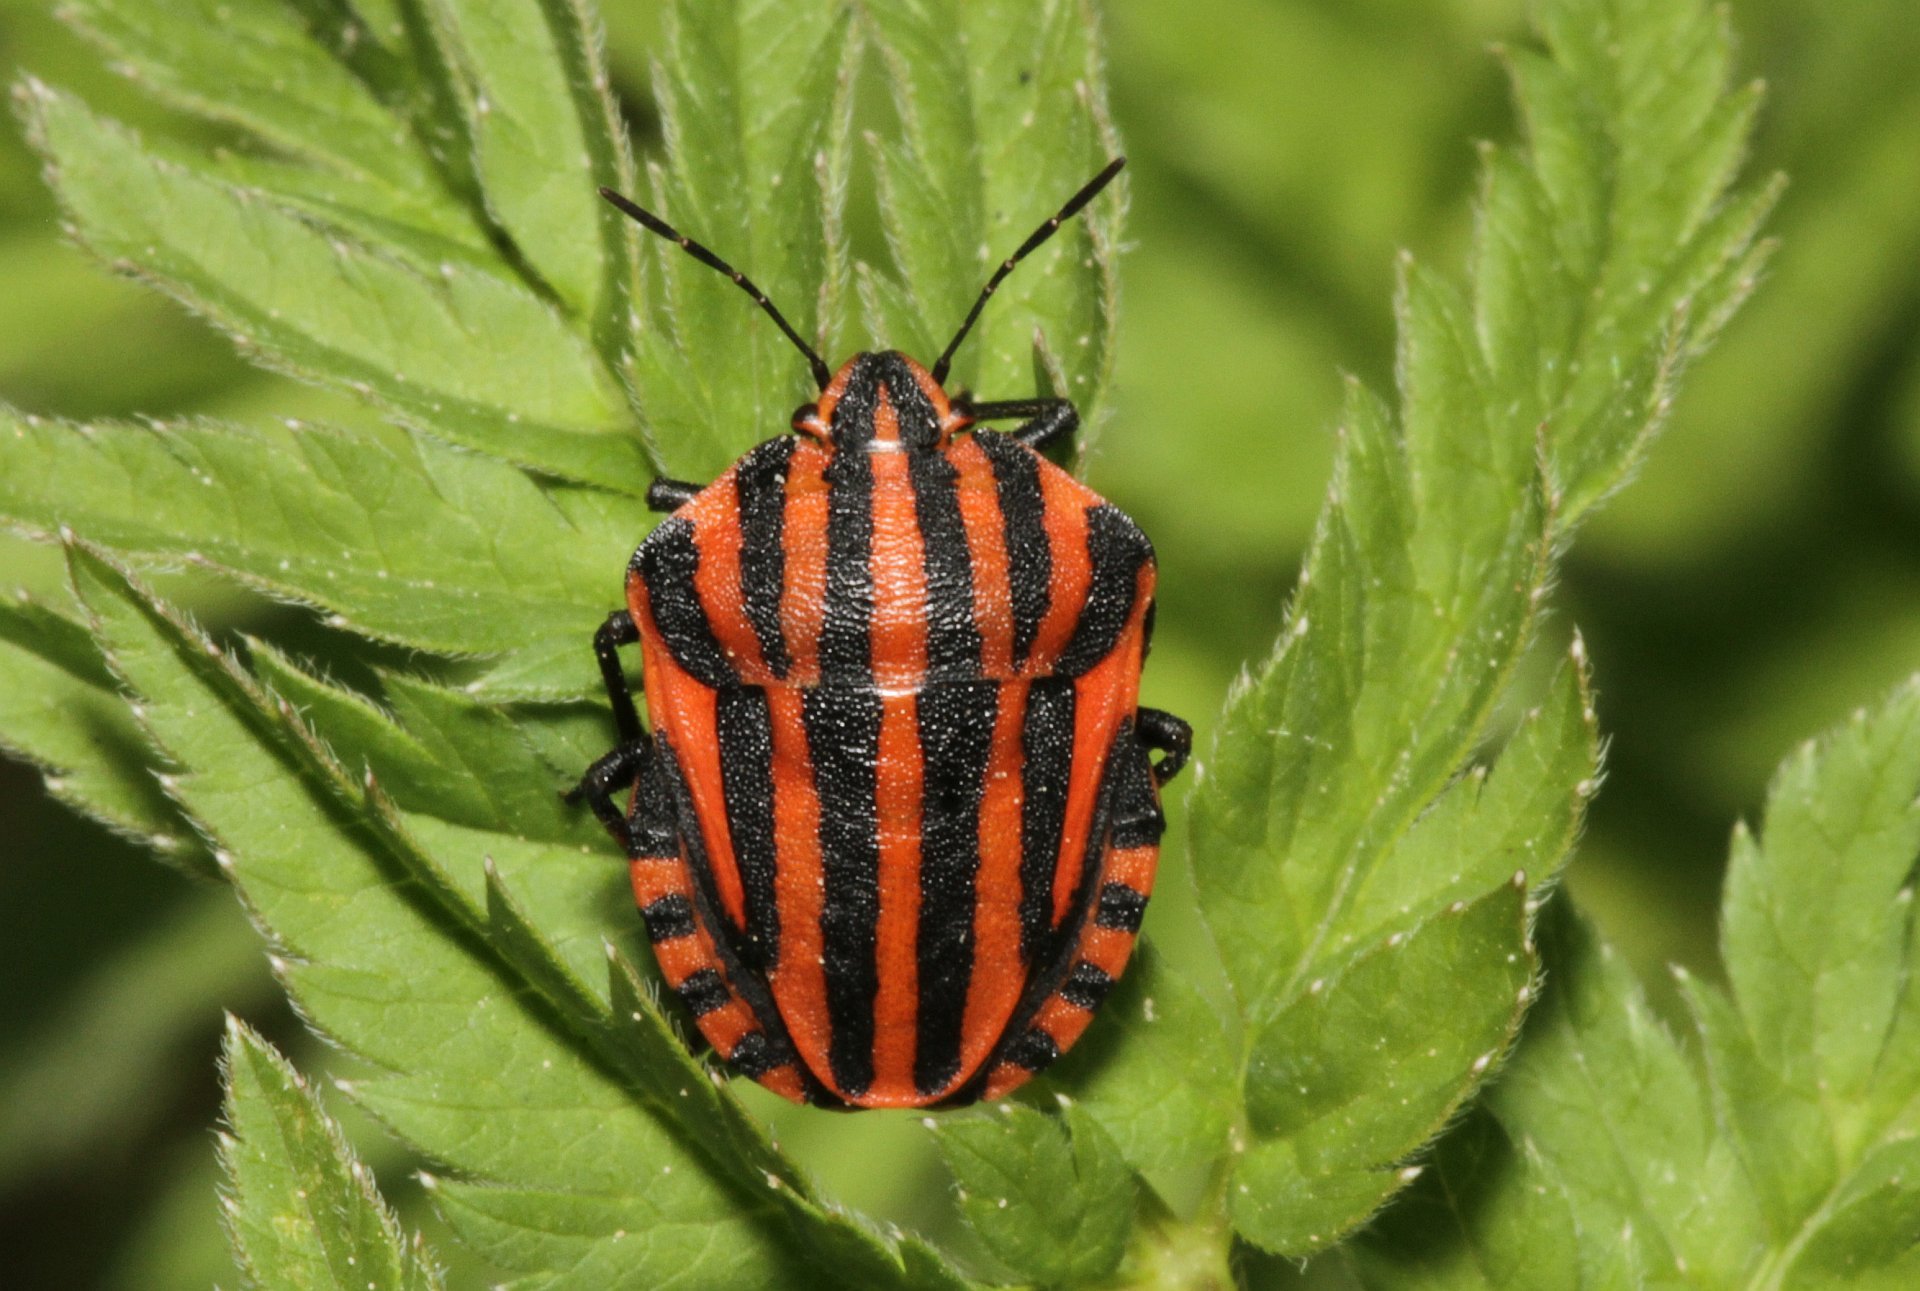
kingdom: Animalia
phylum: Arthropoda
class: Insecta
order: Hemiptera
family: Pentatomidae
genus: Graphosoma
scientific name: Graphosoma italicum
